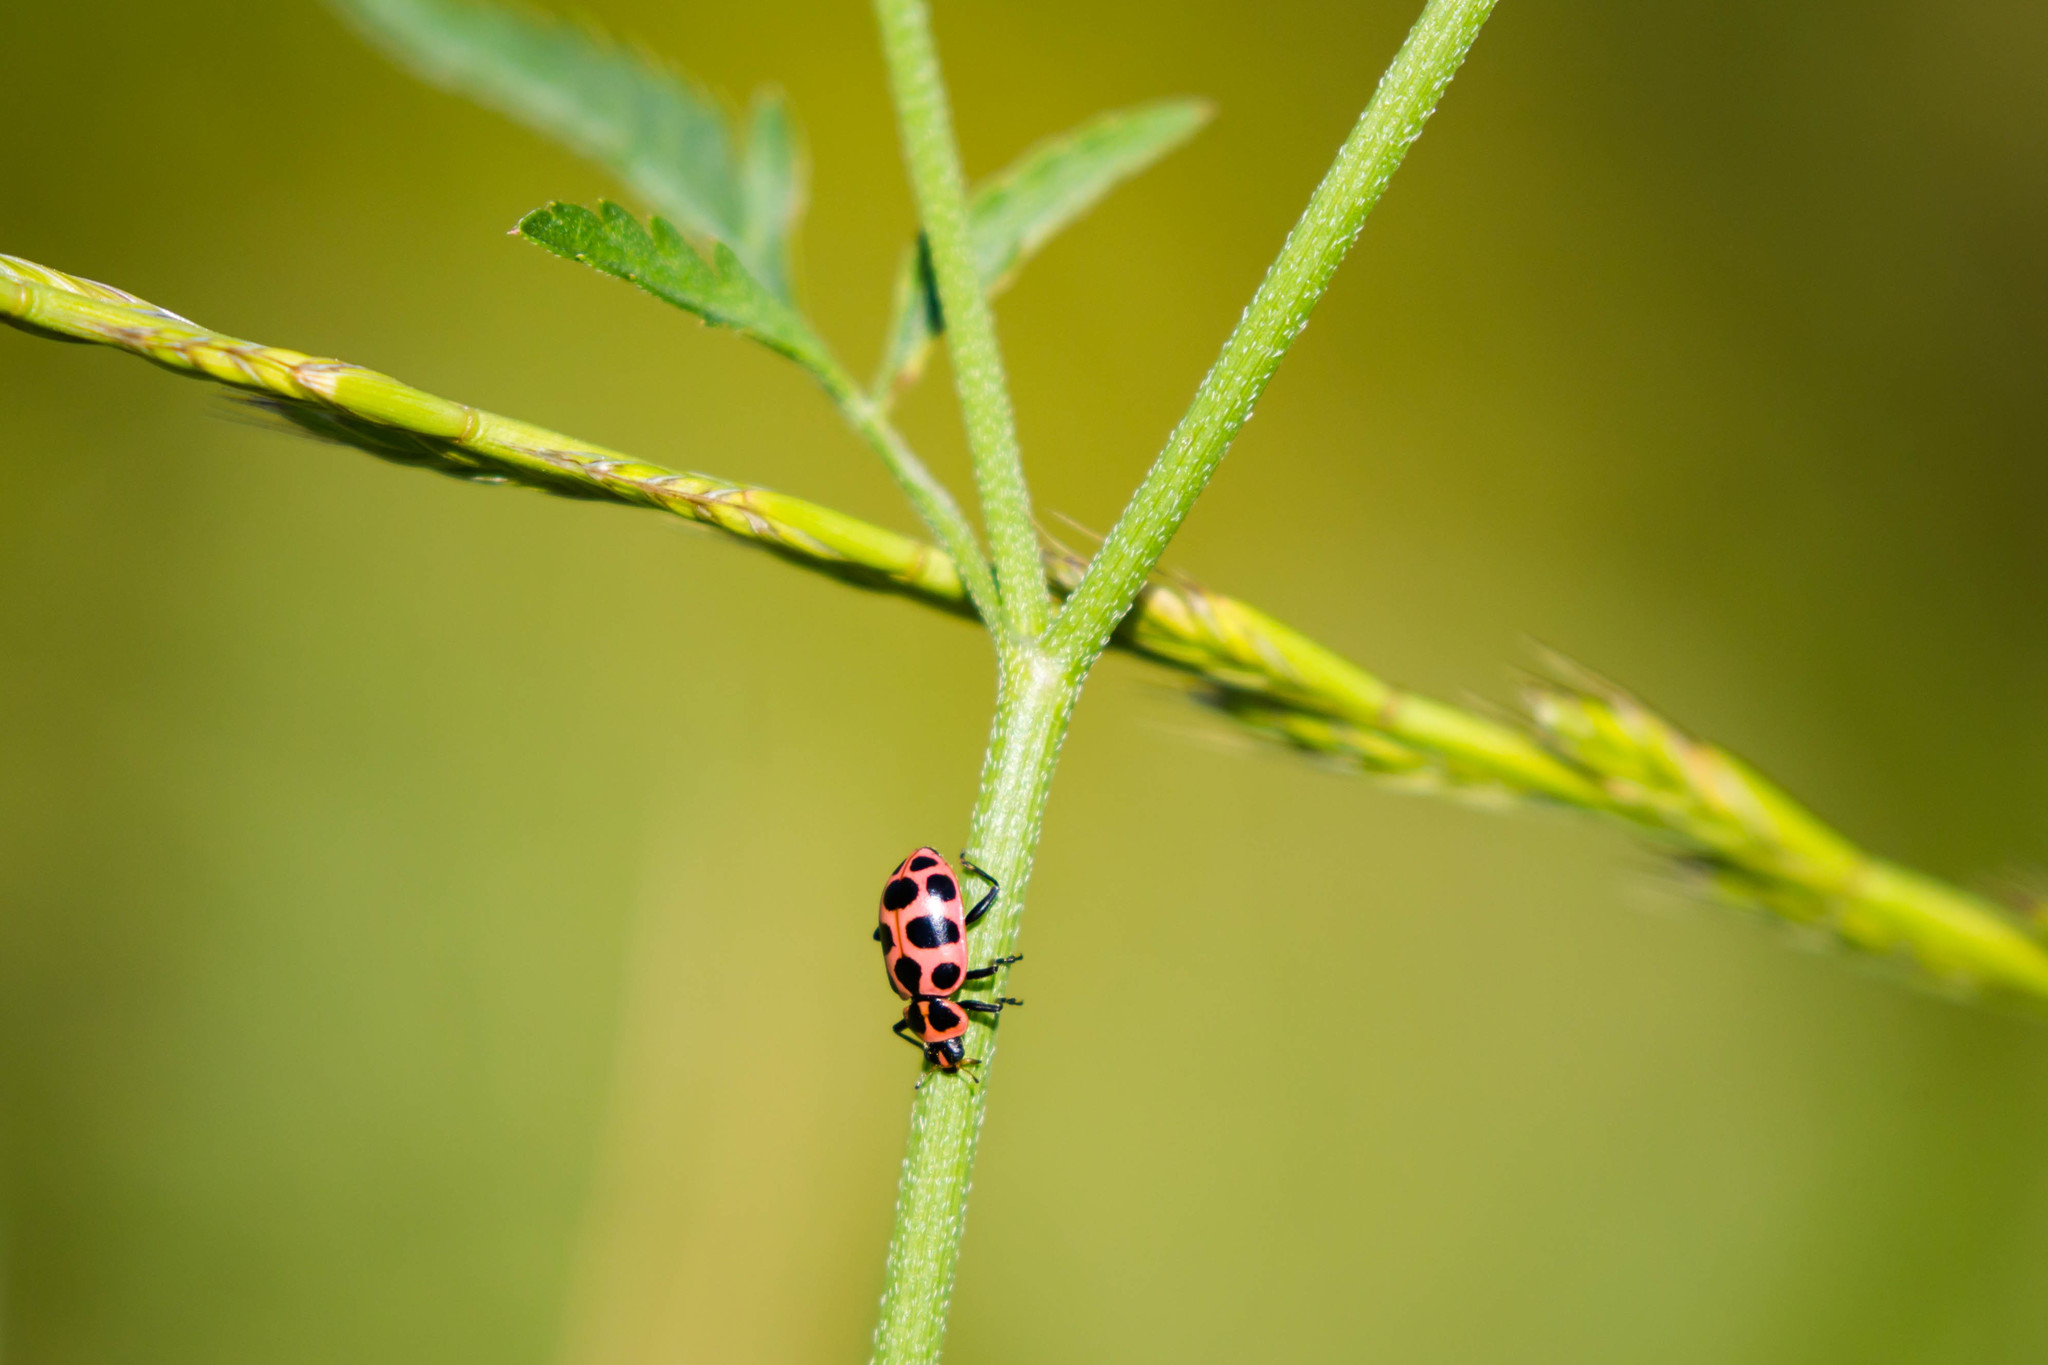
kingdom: Animalia
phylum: Arthropoda
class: Insecta
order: Coleoptera
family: Coccinellidae
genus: Coleomegilla
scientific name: Coleomegilla maculata
